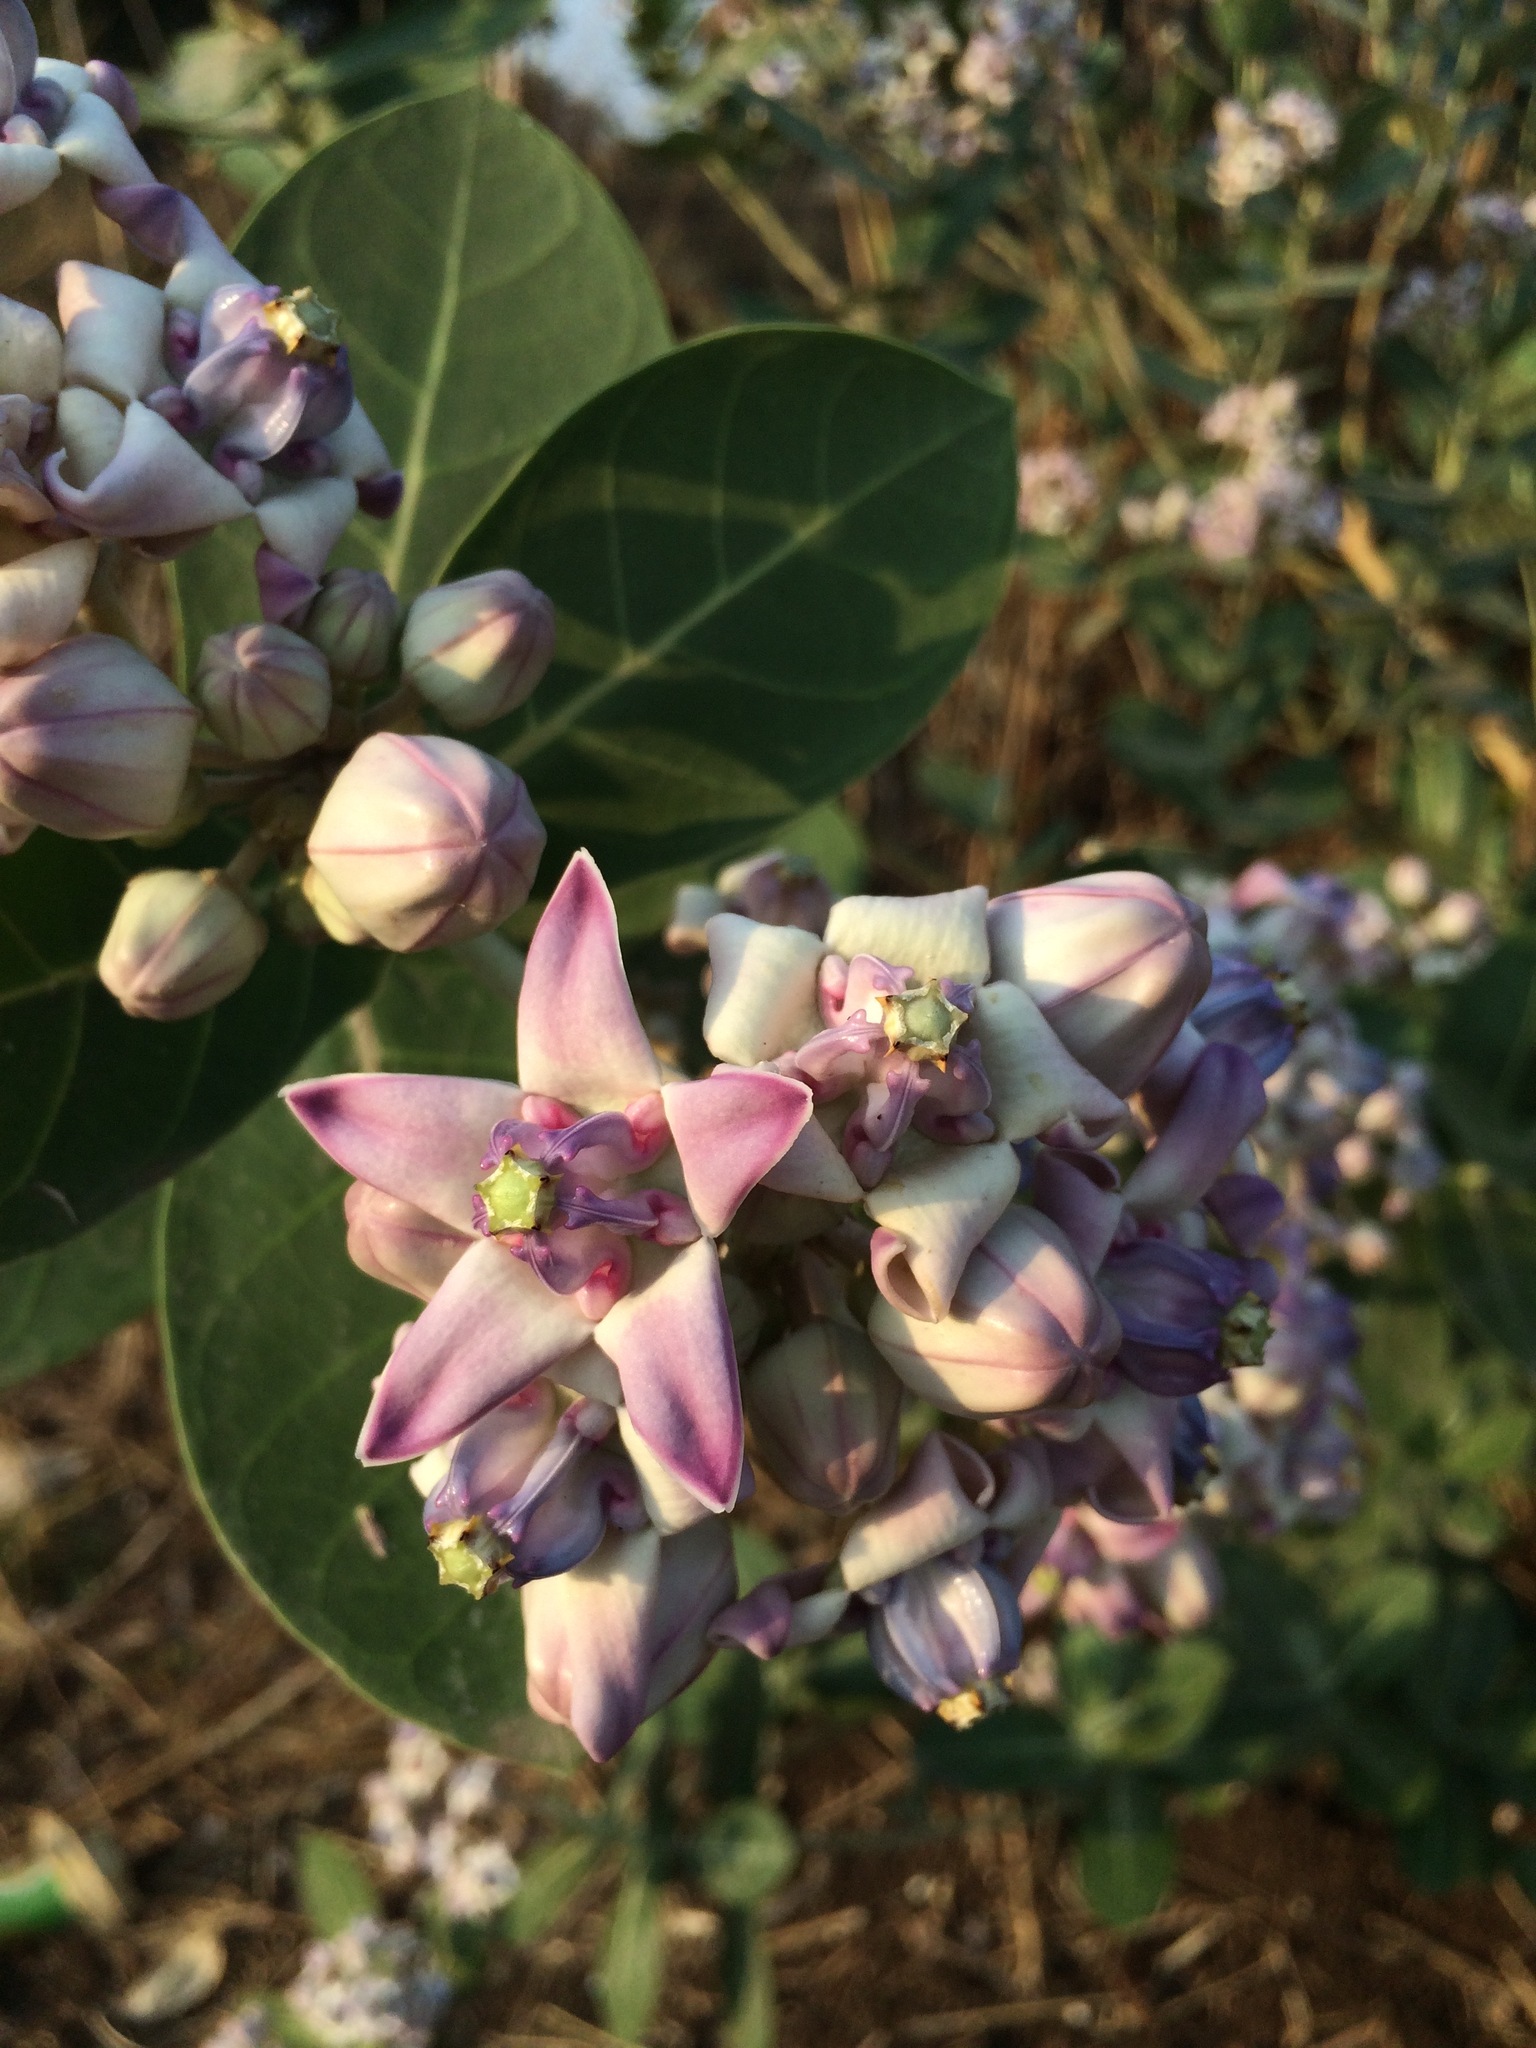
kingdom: Plantae
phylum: Tracheophyta
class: Magnoliopsida
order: Gentianales
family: Apocynaceae
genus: Calotropis
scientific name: Calotropis gigantea
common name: Crown flower
